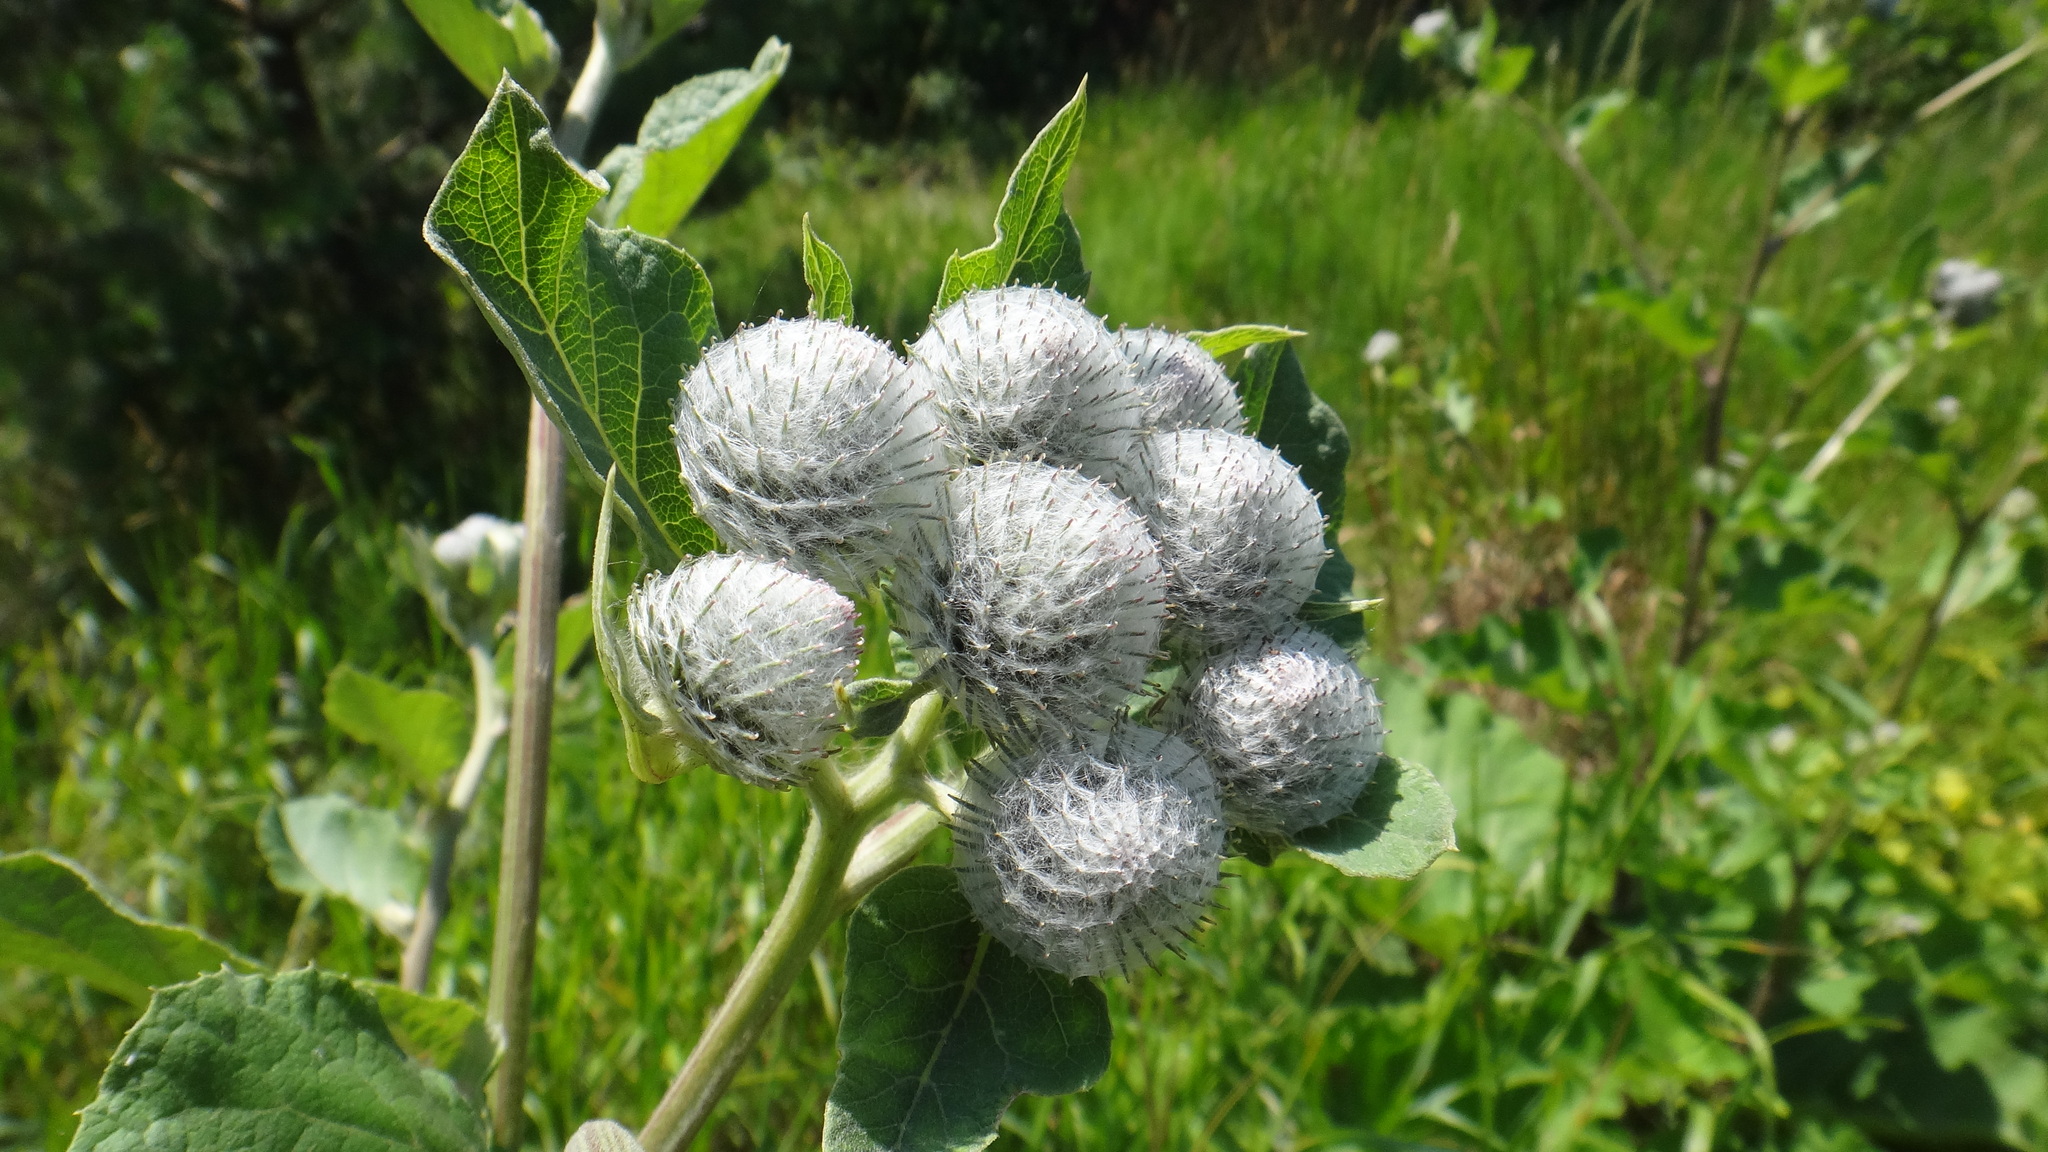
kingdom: Plantae
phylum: Tracheophyta
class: Magnoliopsida
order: Asterales
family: Asteraceae
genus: Arctium
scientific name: Arctium tomentosum
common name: Woolly burdock
